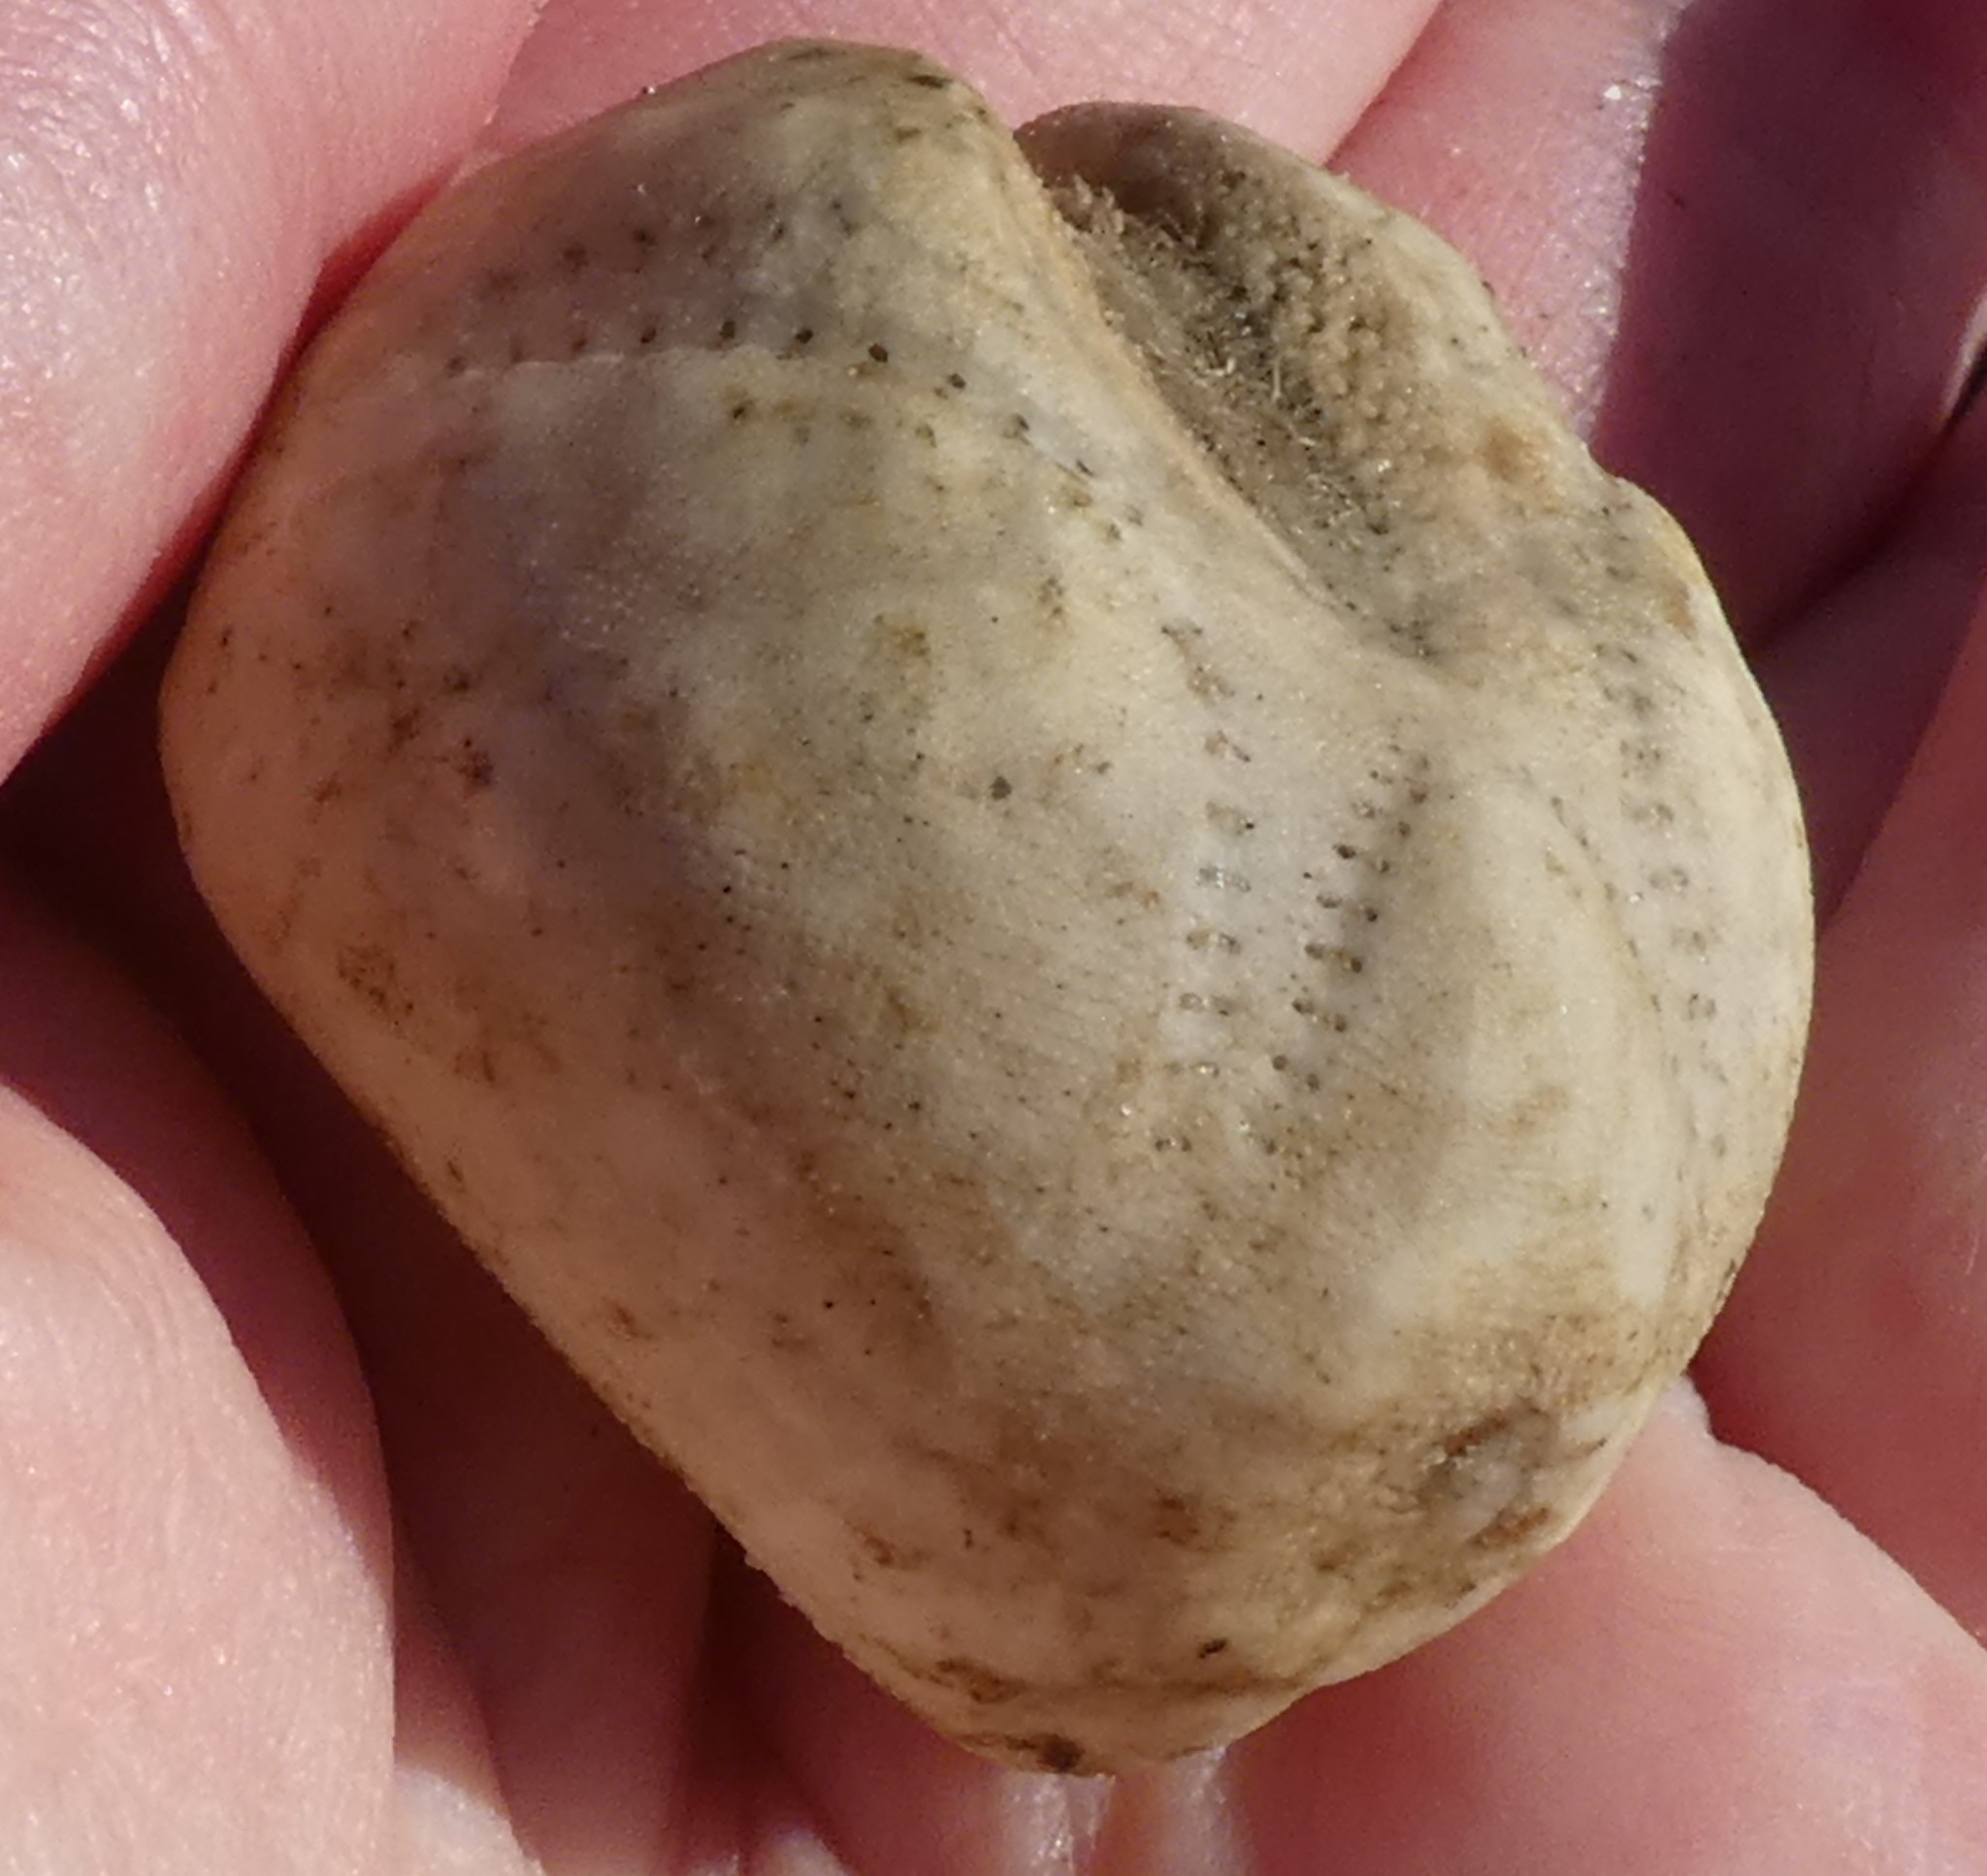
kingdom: Animalia
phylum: Echinodermata
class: Echinoidea
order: Spatangoida
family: Loveniidae
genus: Echinocardium
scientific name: Echinocardium cordatum
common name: Heart-urchin
